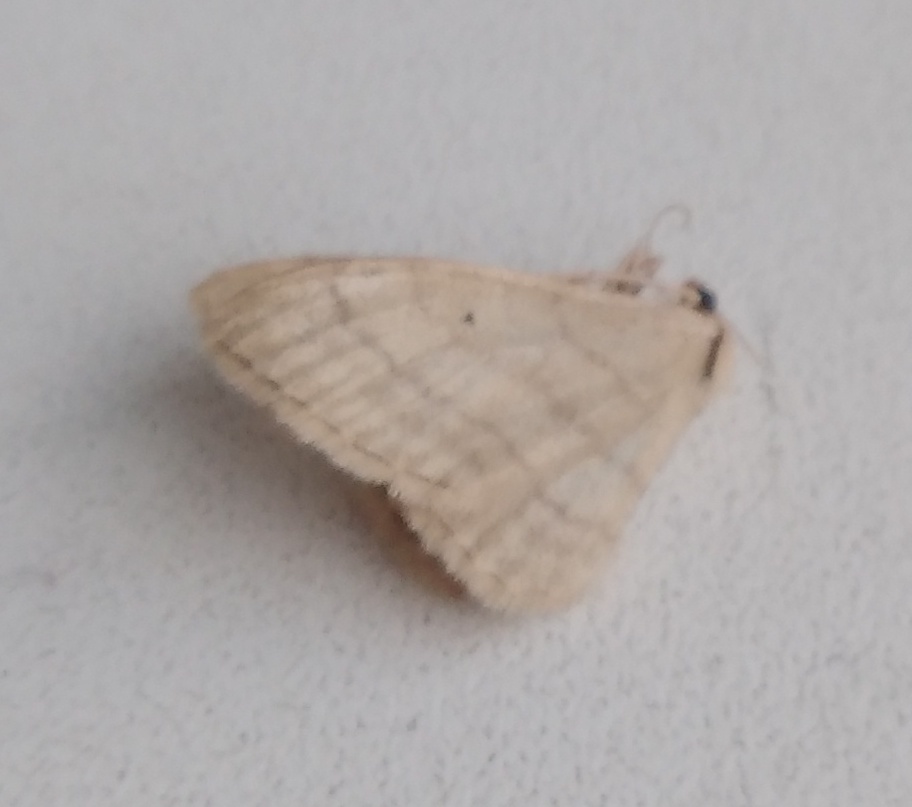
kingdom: Animalia
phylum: Arthropoda
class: Insecta
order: Lepidoptera
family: Geometridae
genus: Idaea
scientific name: Idaea straminata
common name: Plain wave
